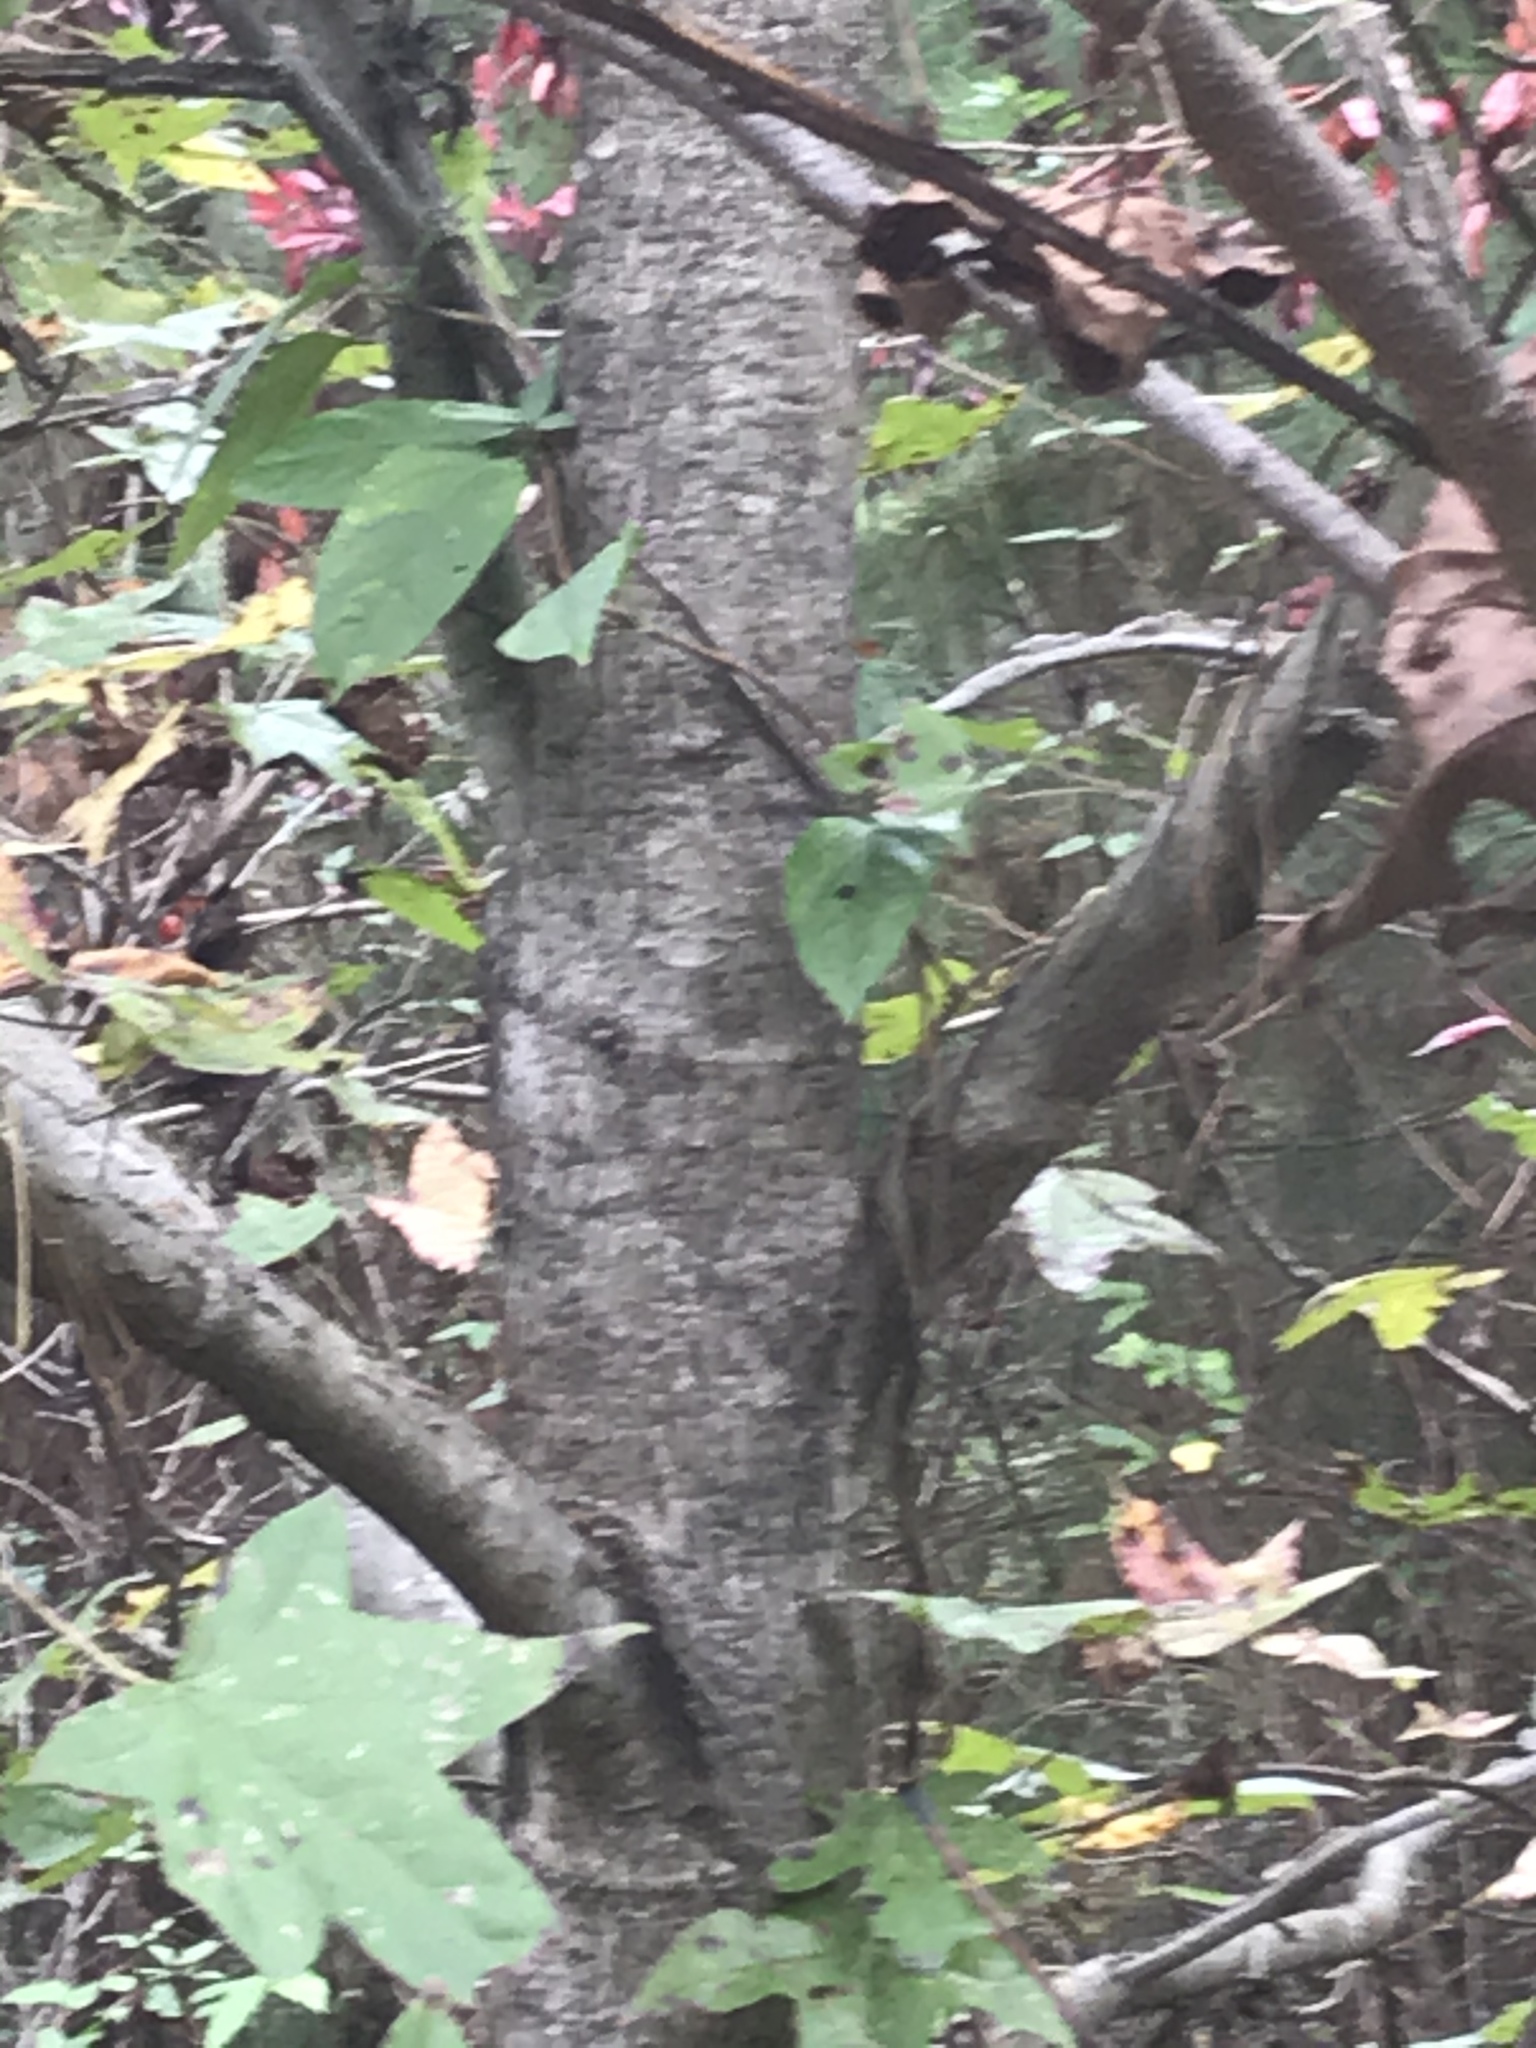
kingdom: Plantae
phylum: Tracheophyta
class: Magnoliopsida
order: Saxifragales
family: Altingiaceae
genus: Liquidambar
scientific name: Liquidambar styraciflua
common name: Sweet gum
